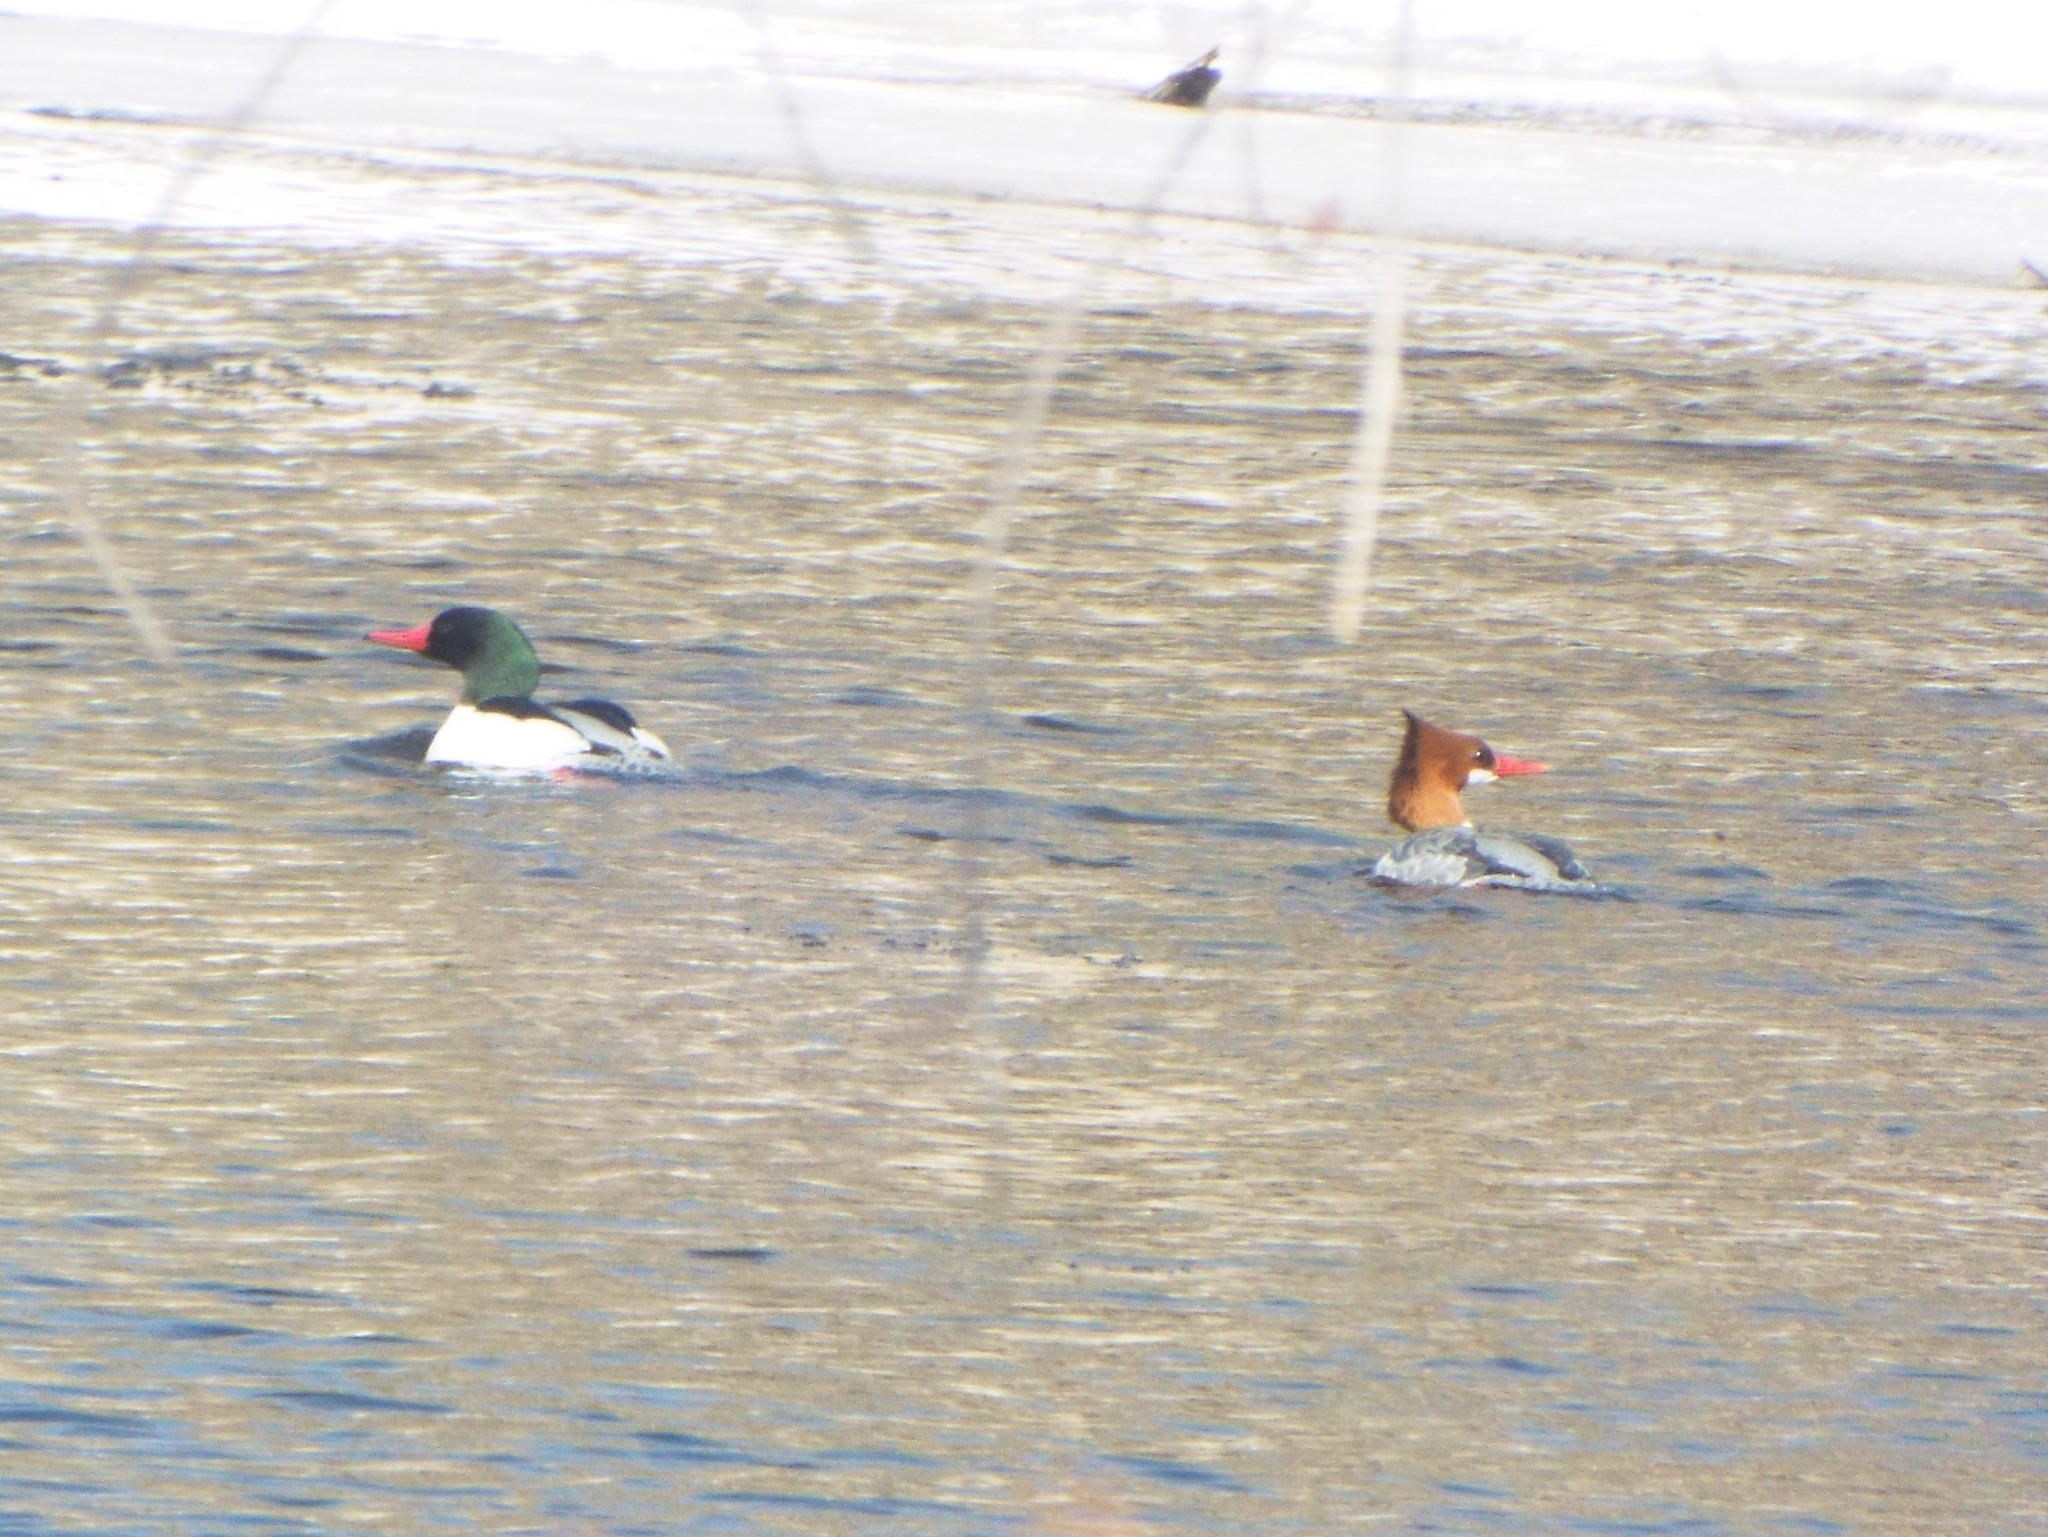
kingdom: Animalia
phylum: Chordata
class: Aves
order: Anseriformes
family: Anatidae
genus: Mergus
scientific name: Mergus merganser
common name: Common merganser
